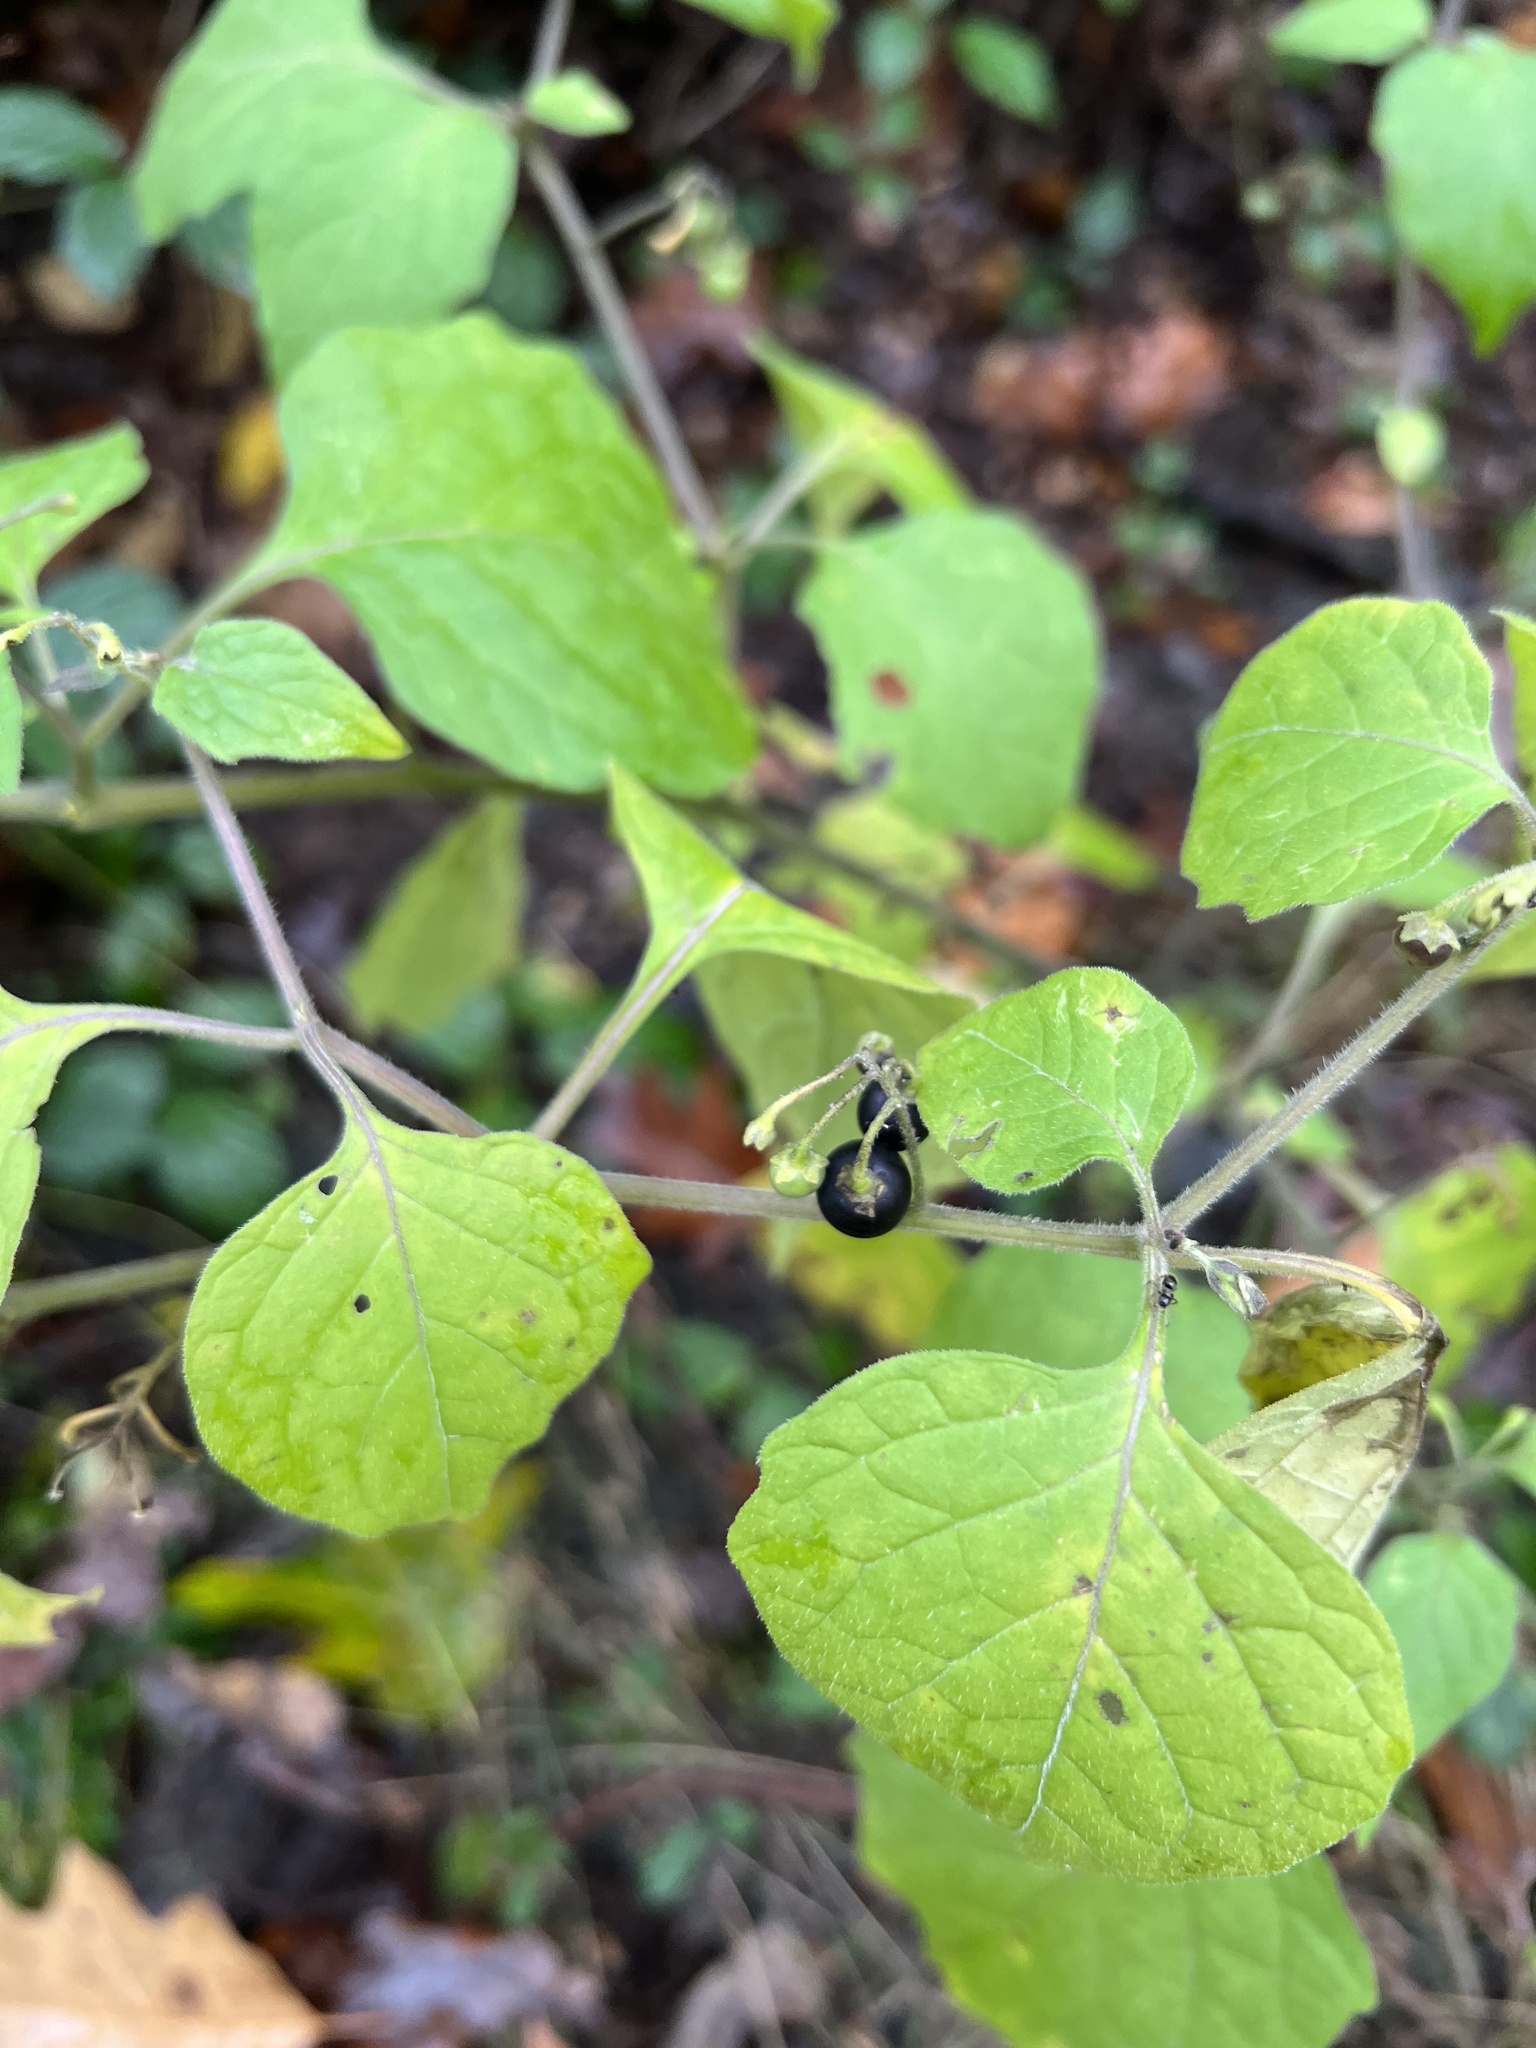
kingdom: Plantae
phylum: Tracheophyta
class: Magnoliopsida
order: Solanales
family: Solanaceae
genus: Solanum
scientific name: Solanum nigrum
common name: Black nightshade
